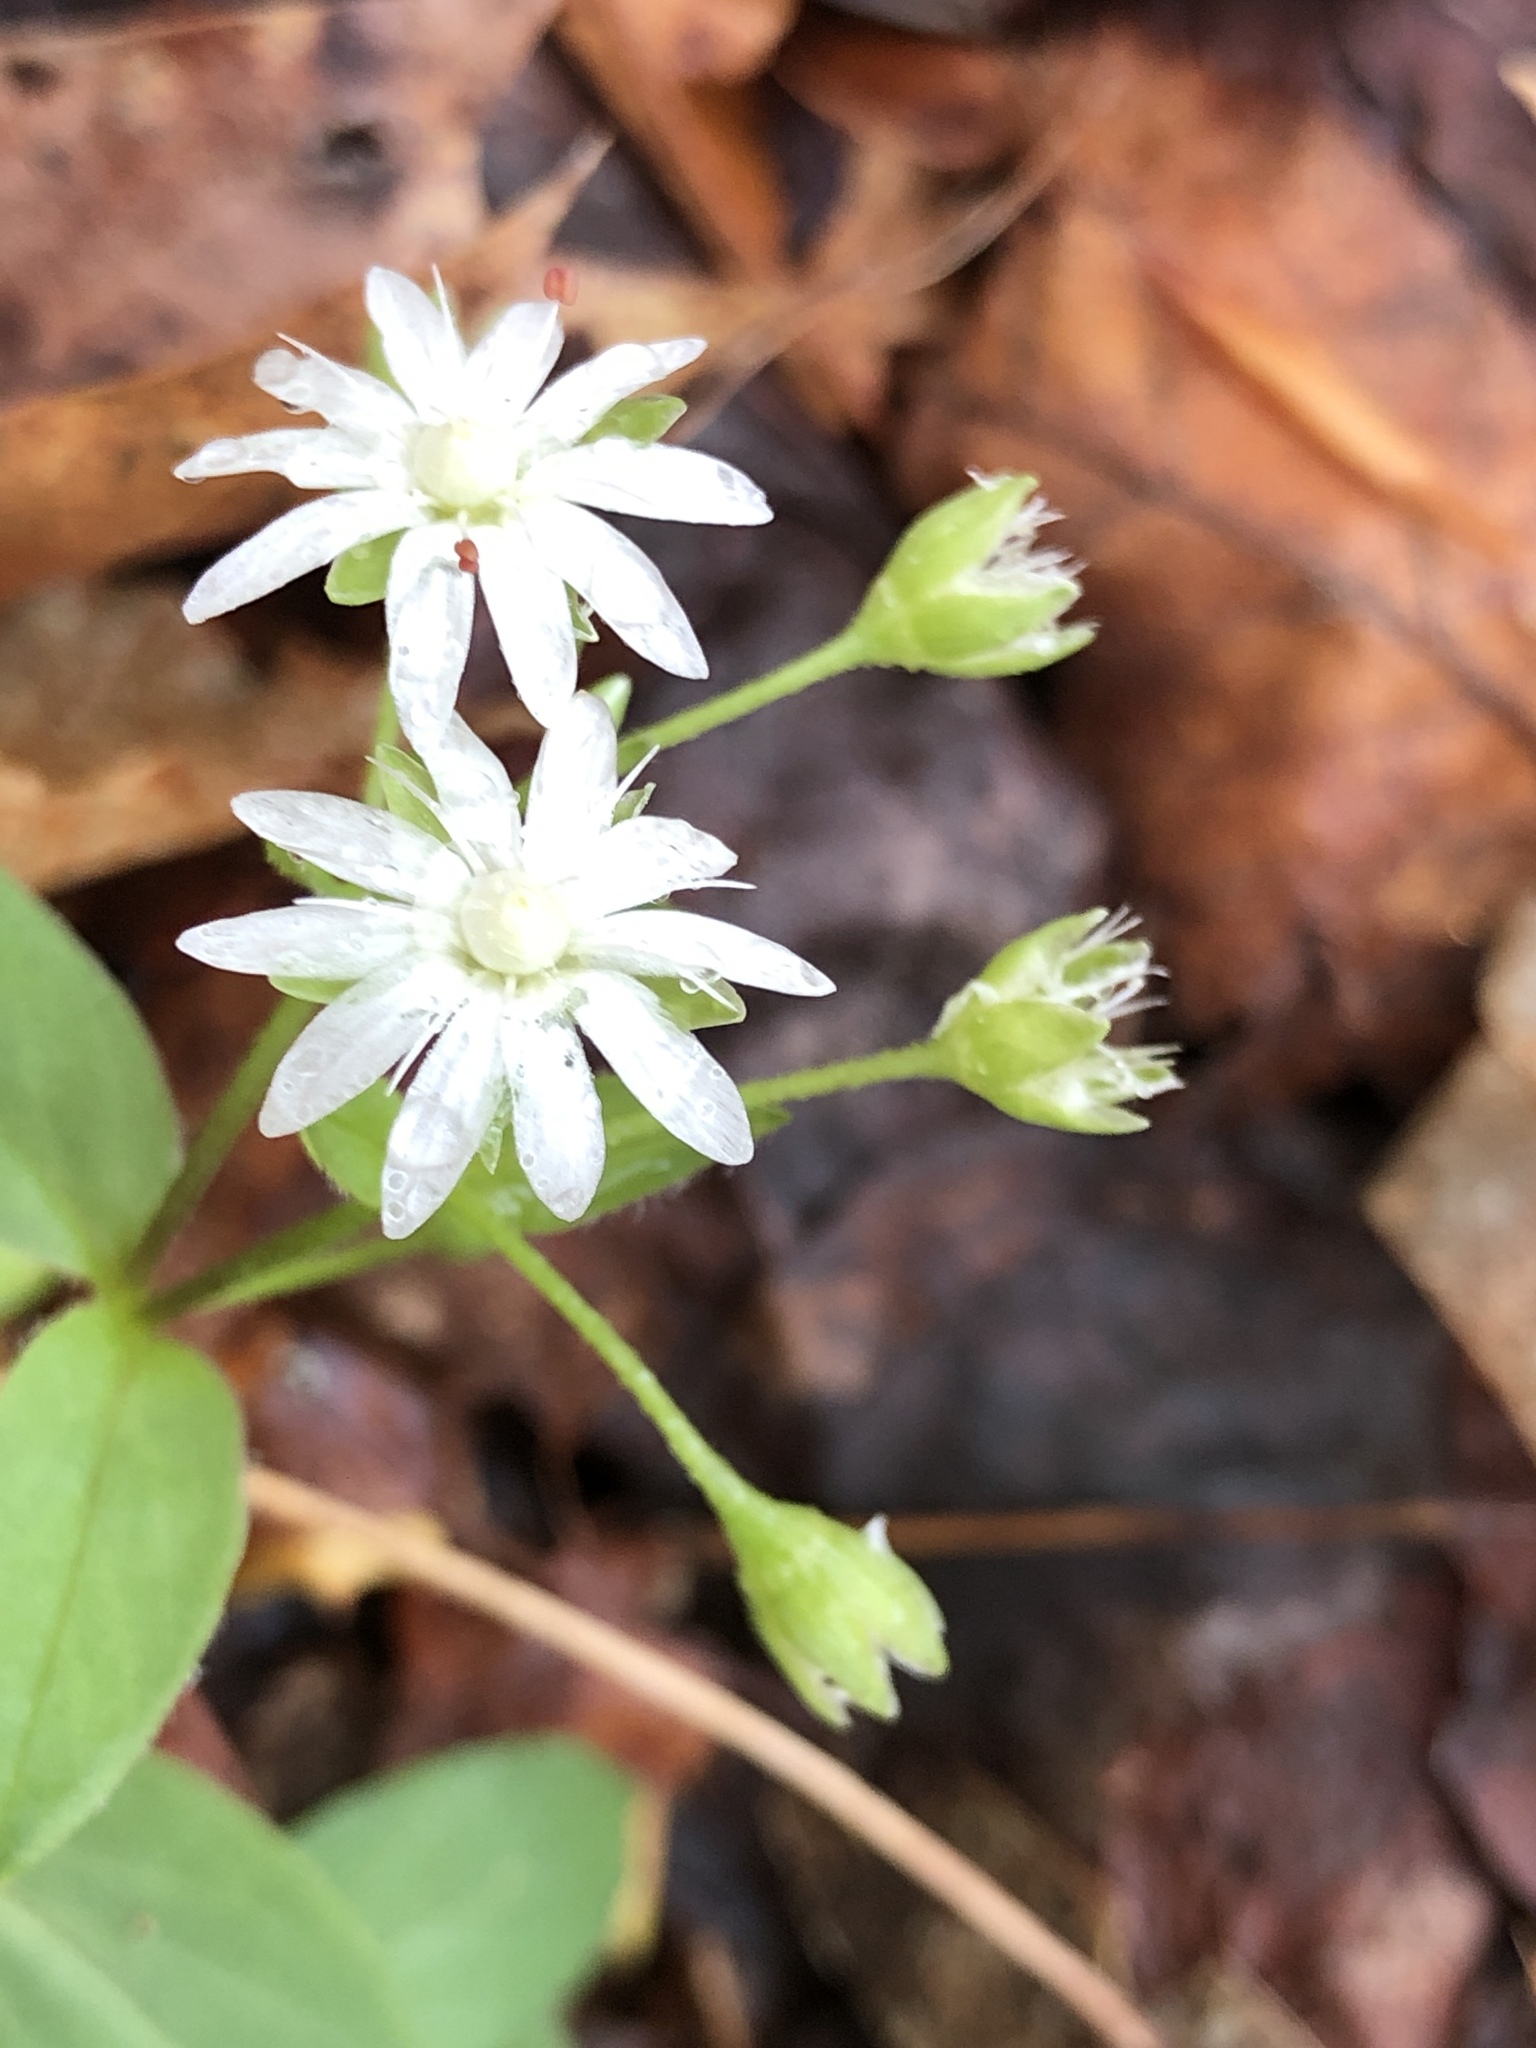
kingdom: Plantae
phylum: Tracheophyta
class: Magnoliopsida
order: Caryophyllales
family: Caryophyllaceae
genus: Stellaria
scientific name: Stellaria pubera
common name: Star chickweed
